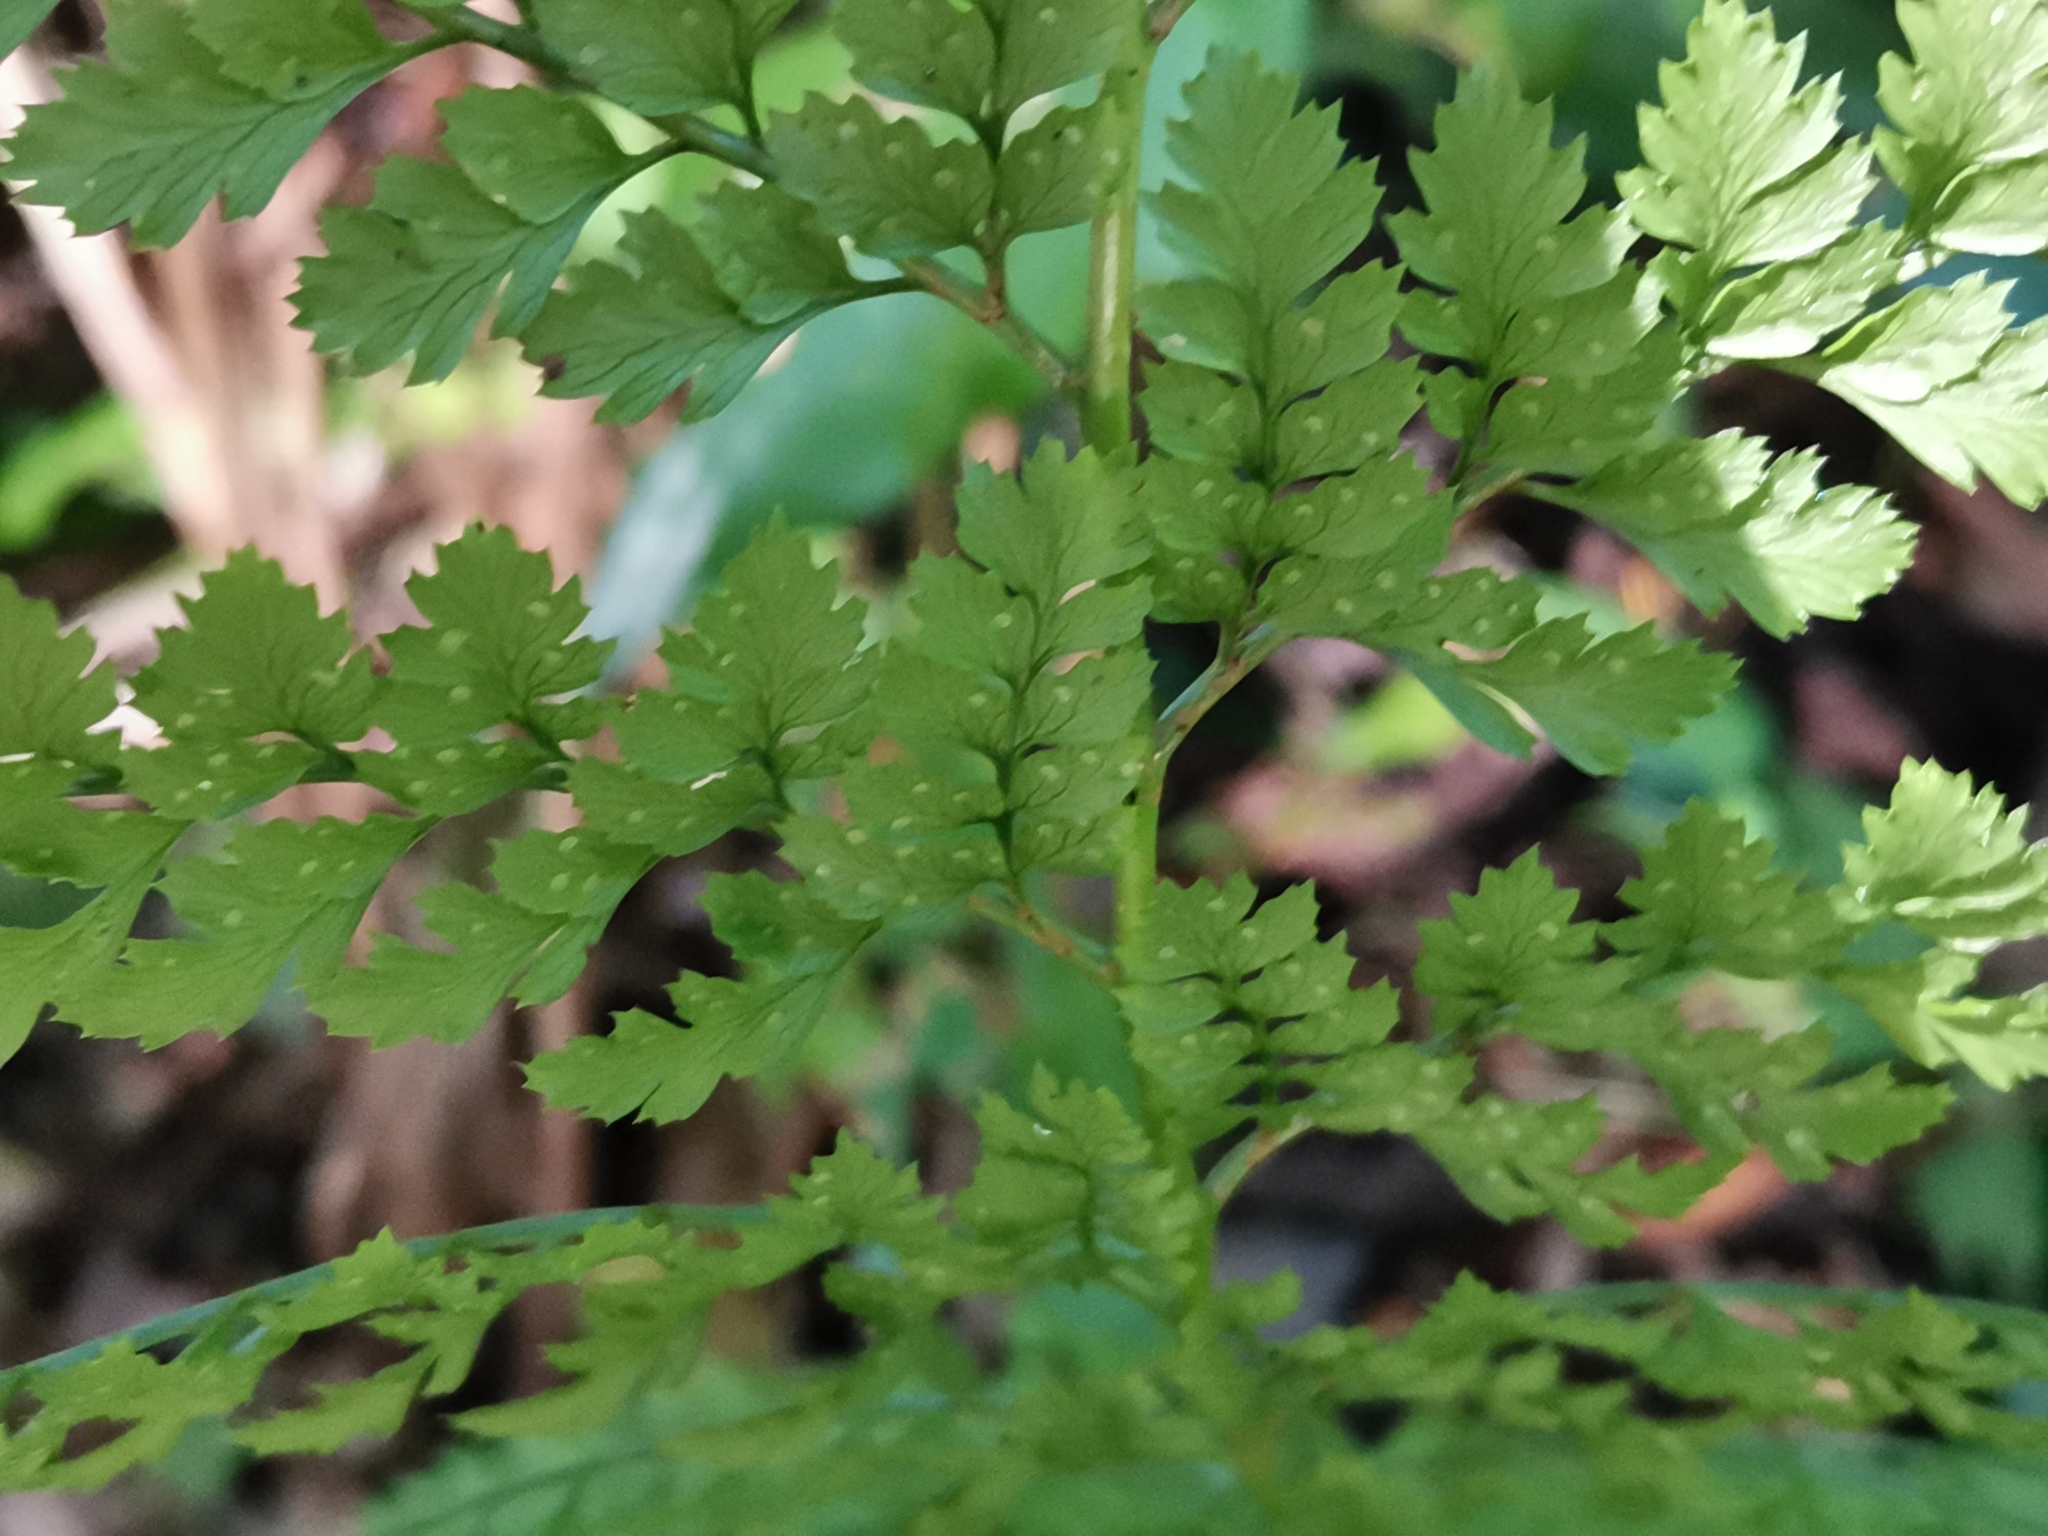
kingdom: Plantae
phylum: Tracheophyta
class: Polypodiopsida
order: Polypodiales
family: Dryopteridaceae
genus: Arachniodes
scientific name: Arachniodes standishii
